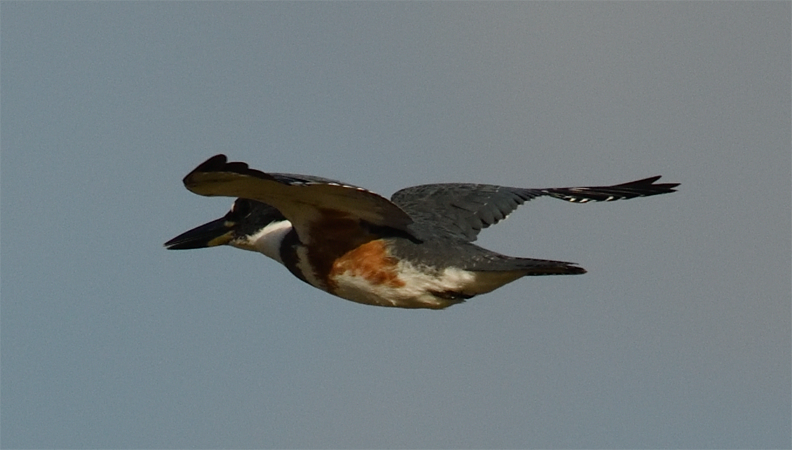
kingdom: Animalia
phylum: Chordata
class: Aves
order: Coraciiformes
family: Alcedinidae
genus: Megaceryle
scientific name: Megaceryle alcyon
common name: Belted kingfisher
